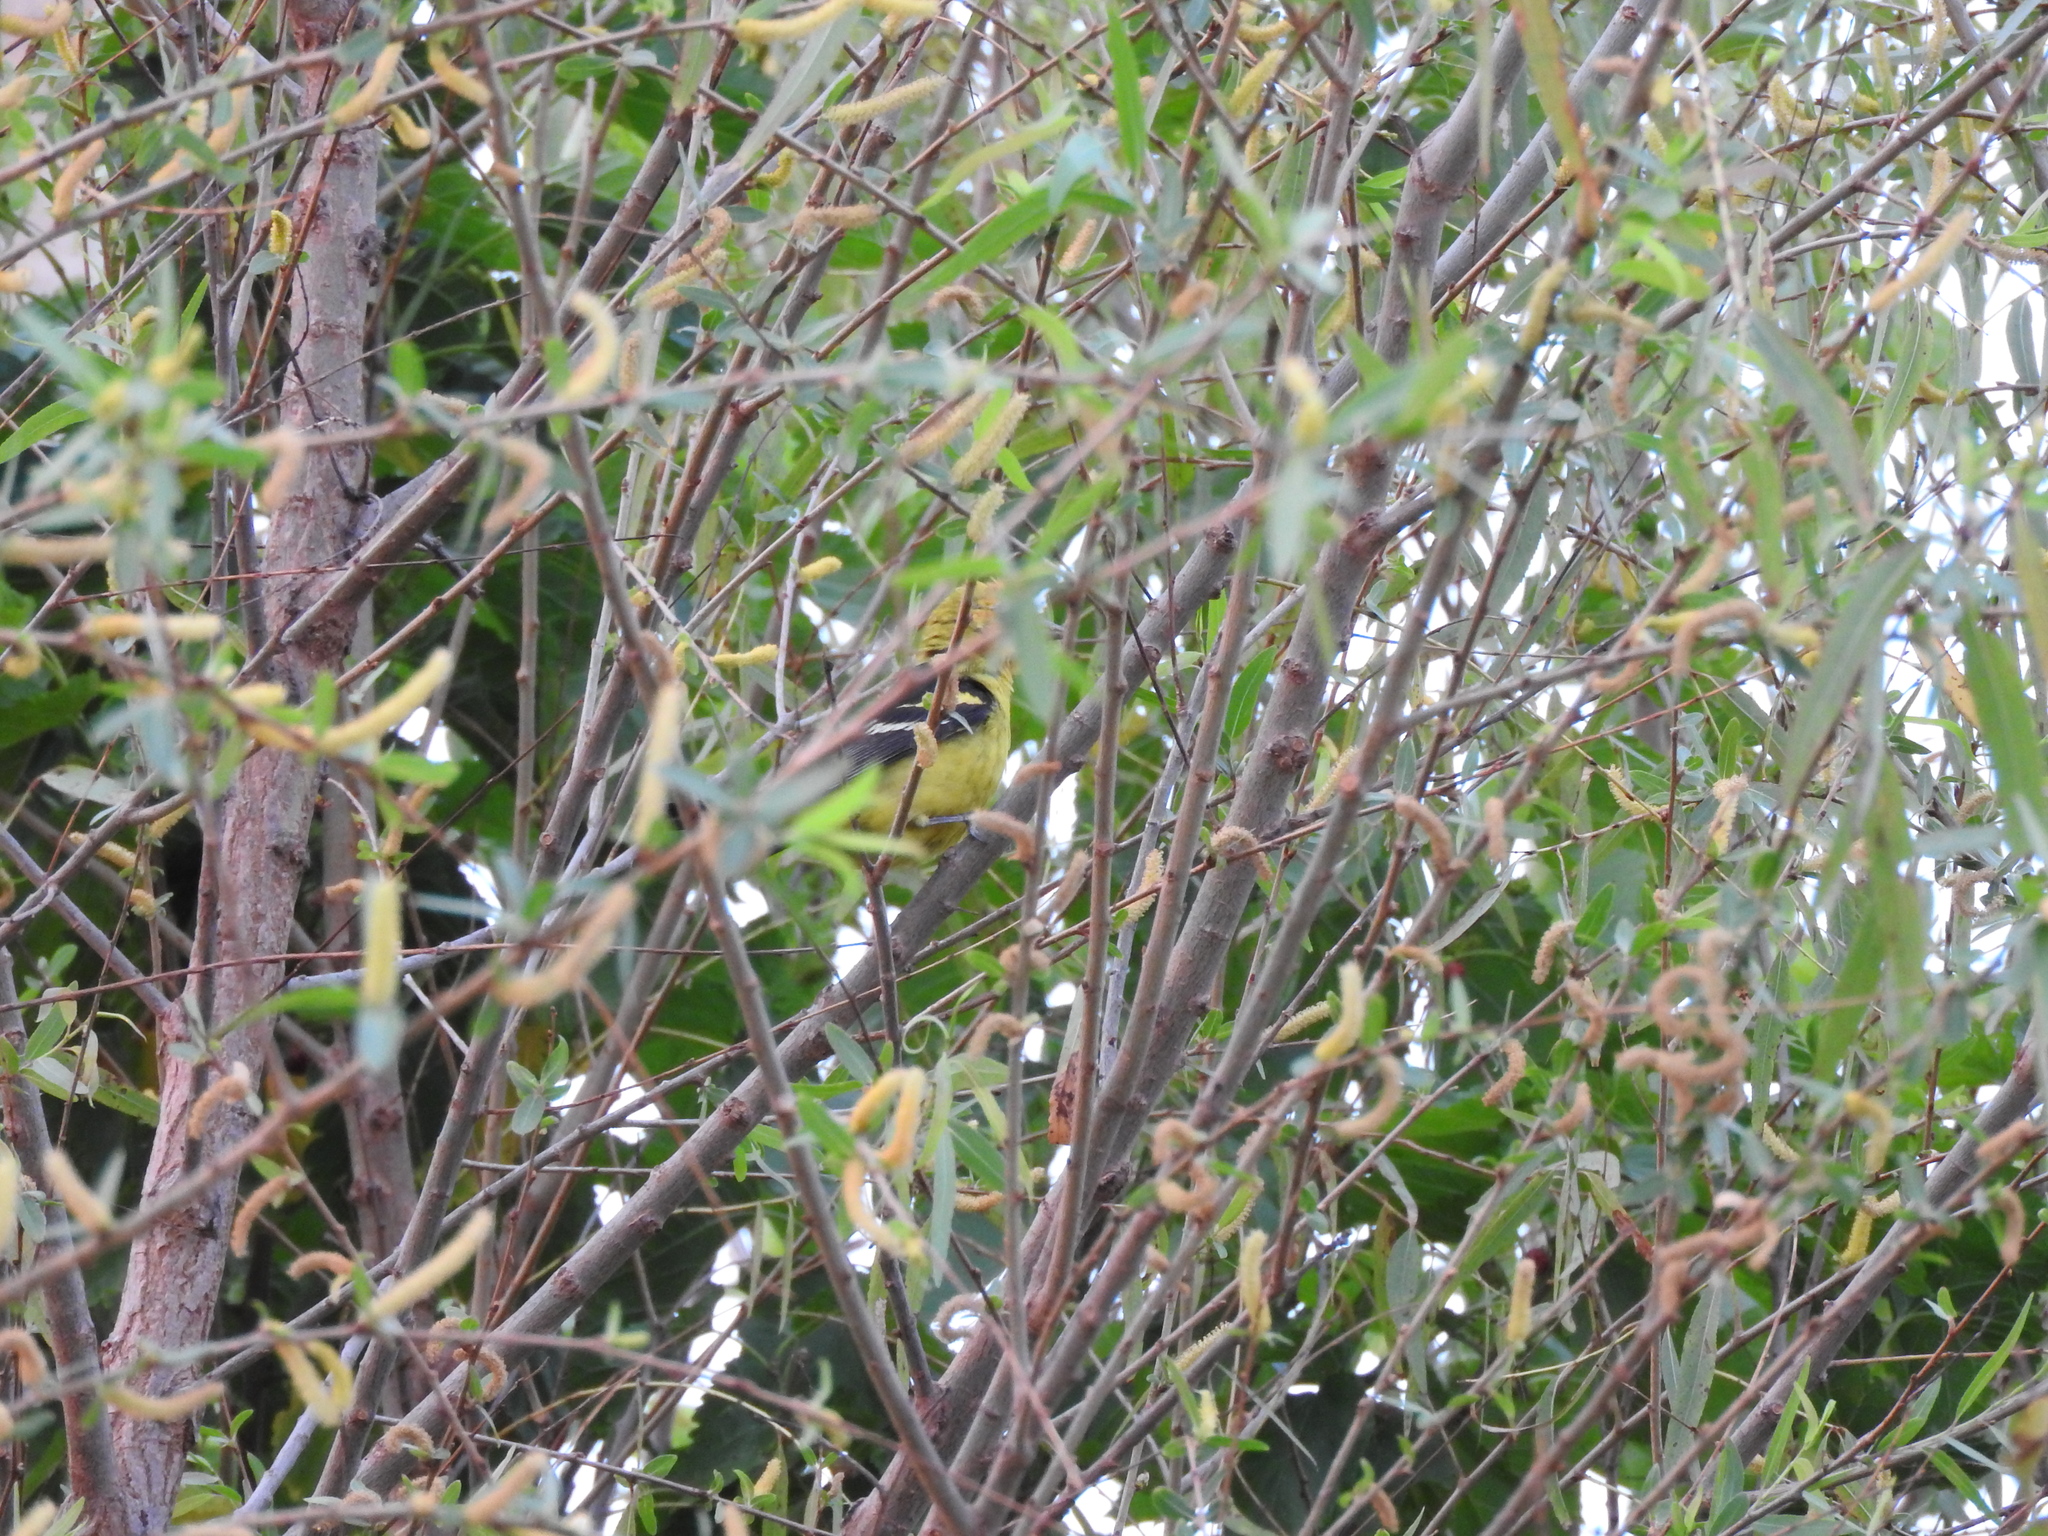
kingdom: Animalia
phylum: Chordata
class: Aves
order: Passeriformes
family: Cardinalidae
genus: Piranga
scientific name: Piranga ludoviciana
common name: Western tanager
